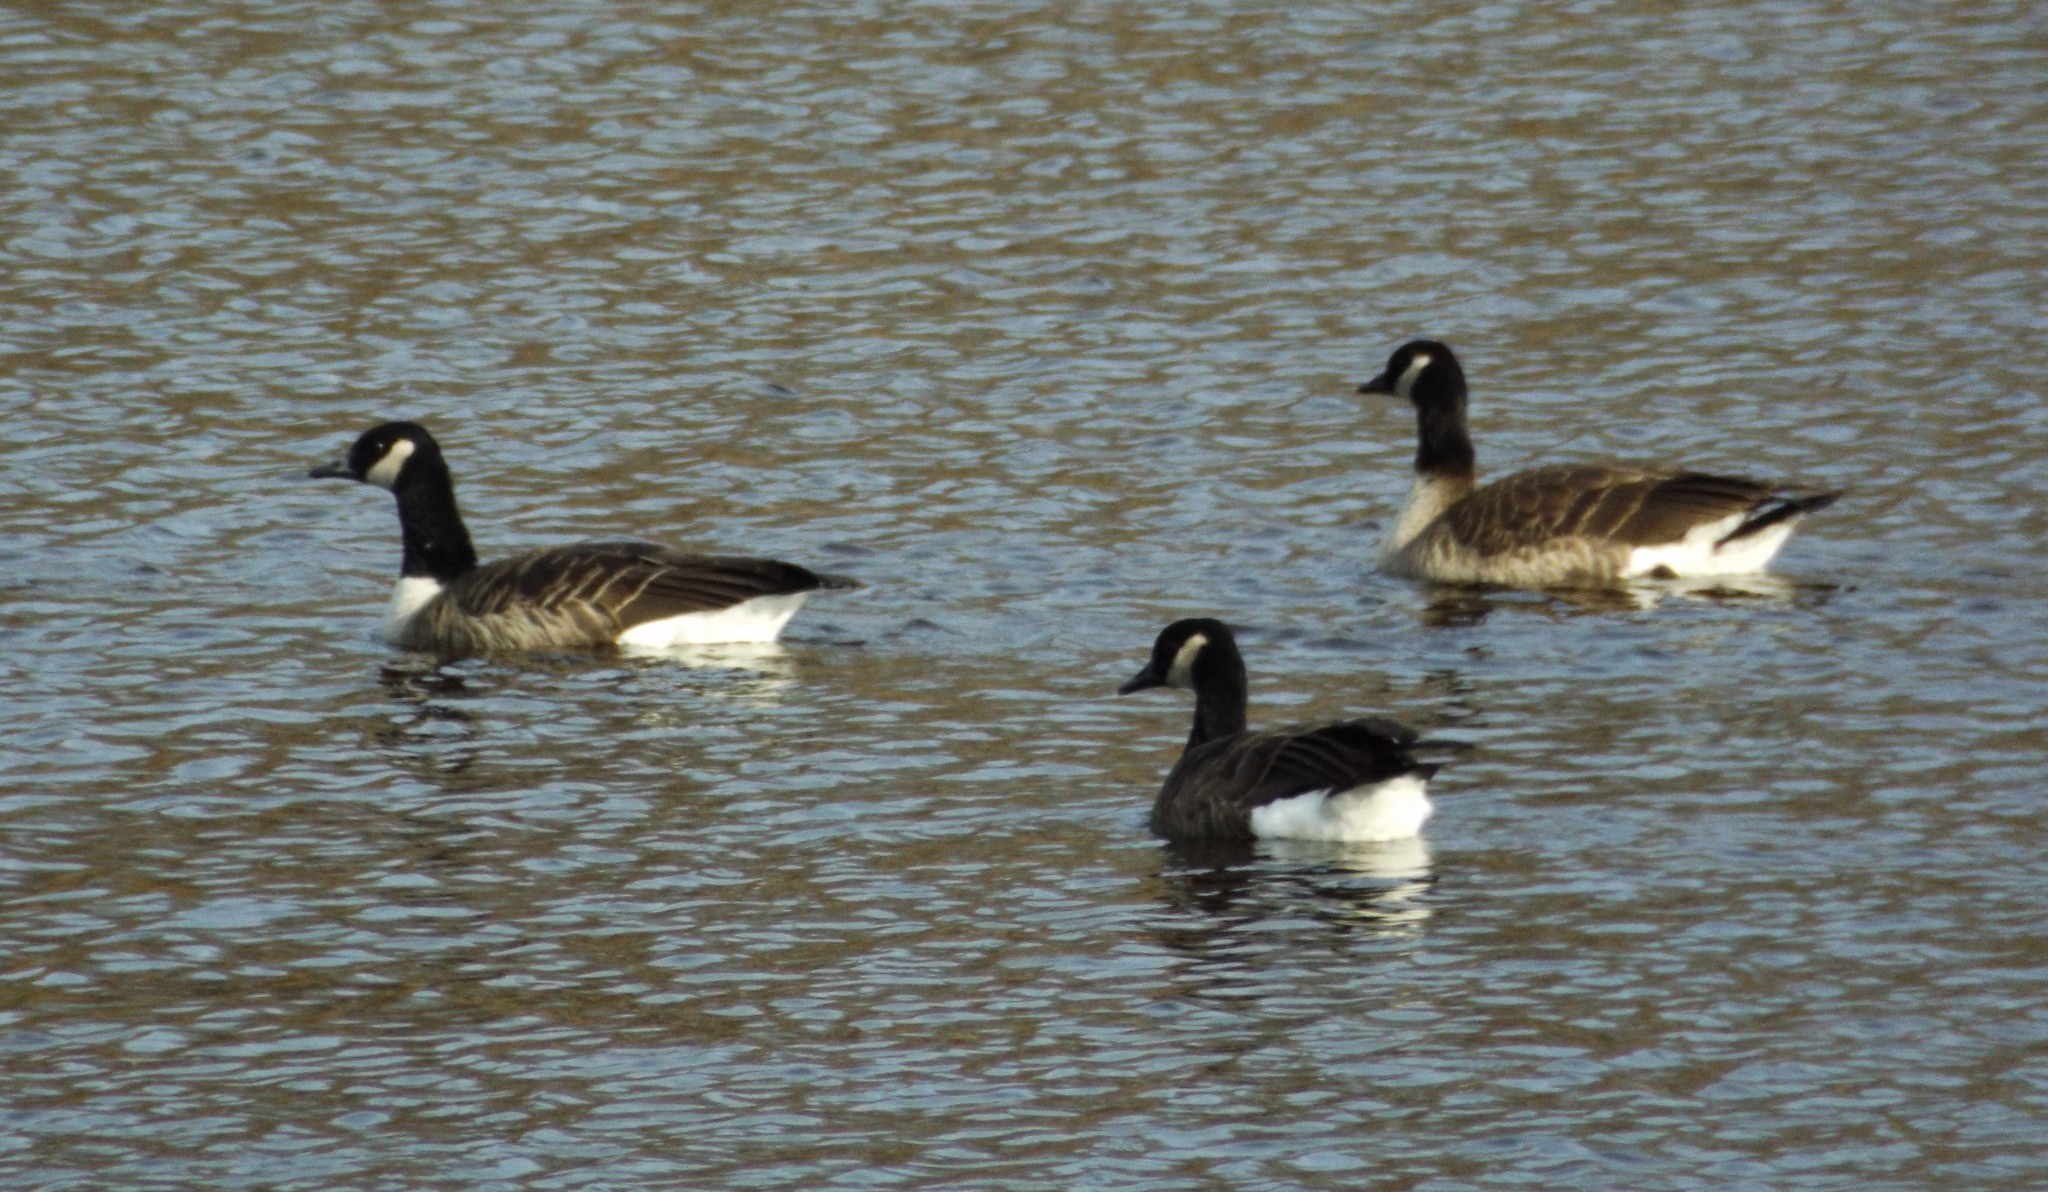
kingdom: Animalia
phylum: Chordata
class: Aves
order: Anseriformes
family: Anatidae
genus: Branta
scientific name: Branta canadensis
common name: Canada goose
